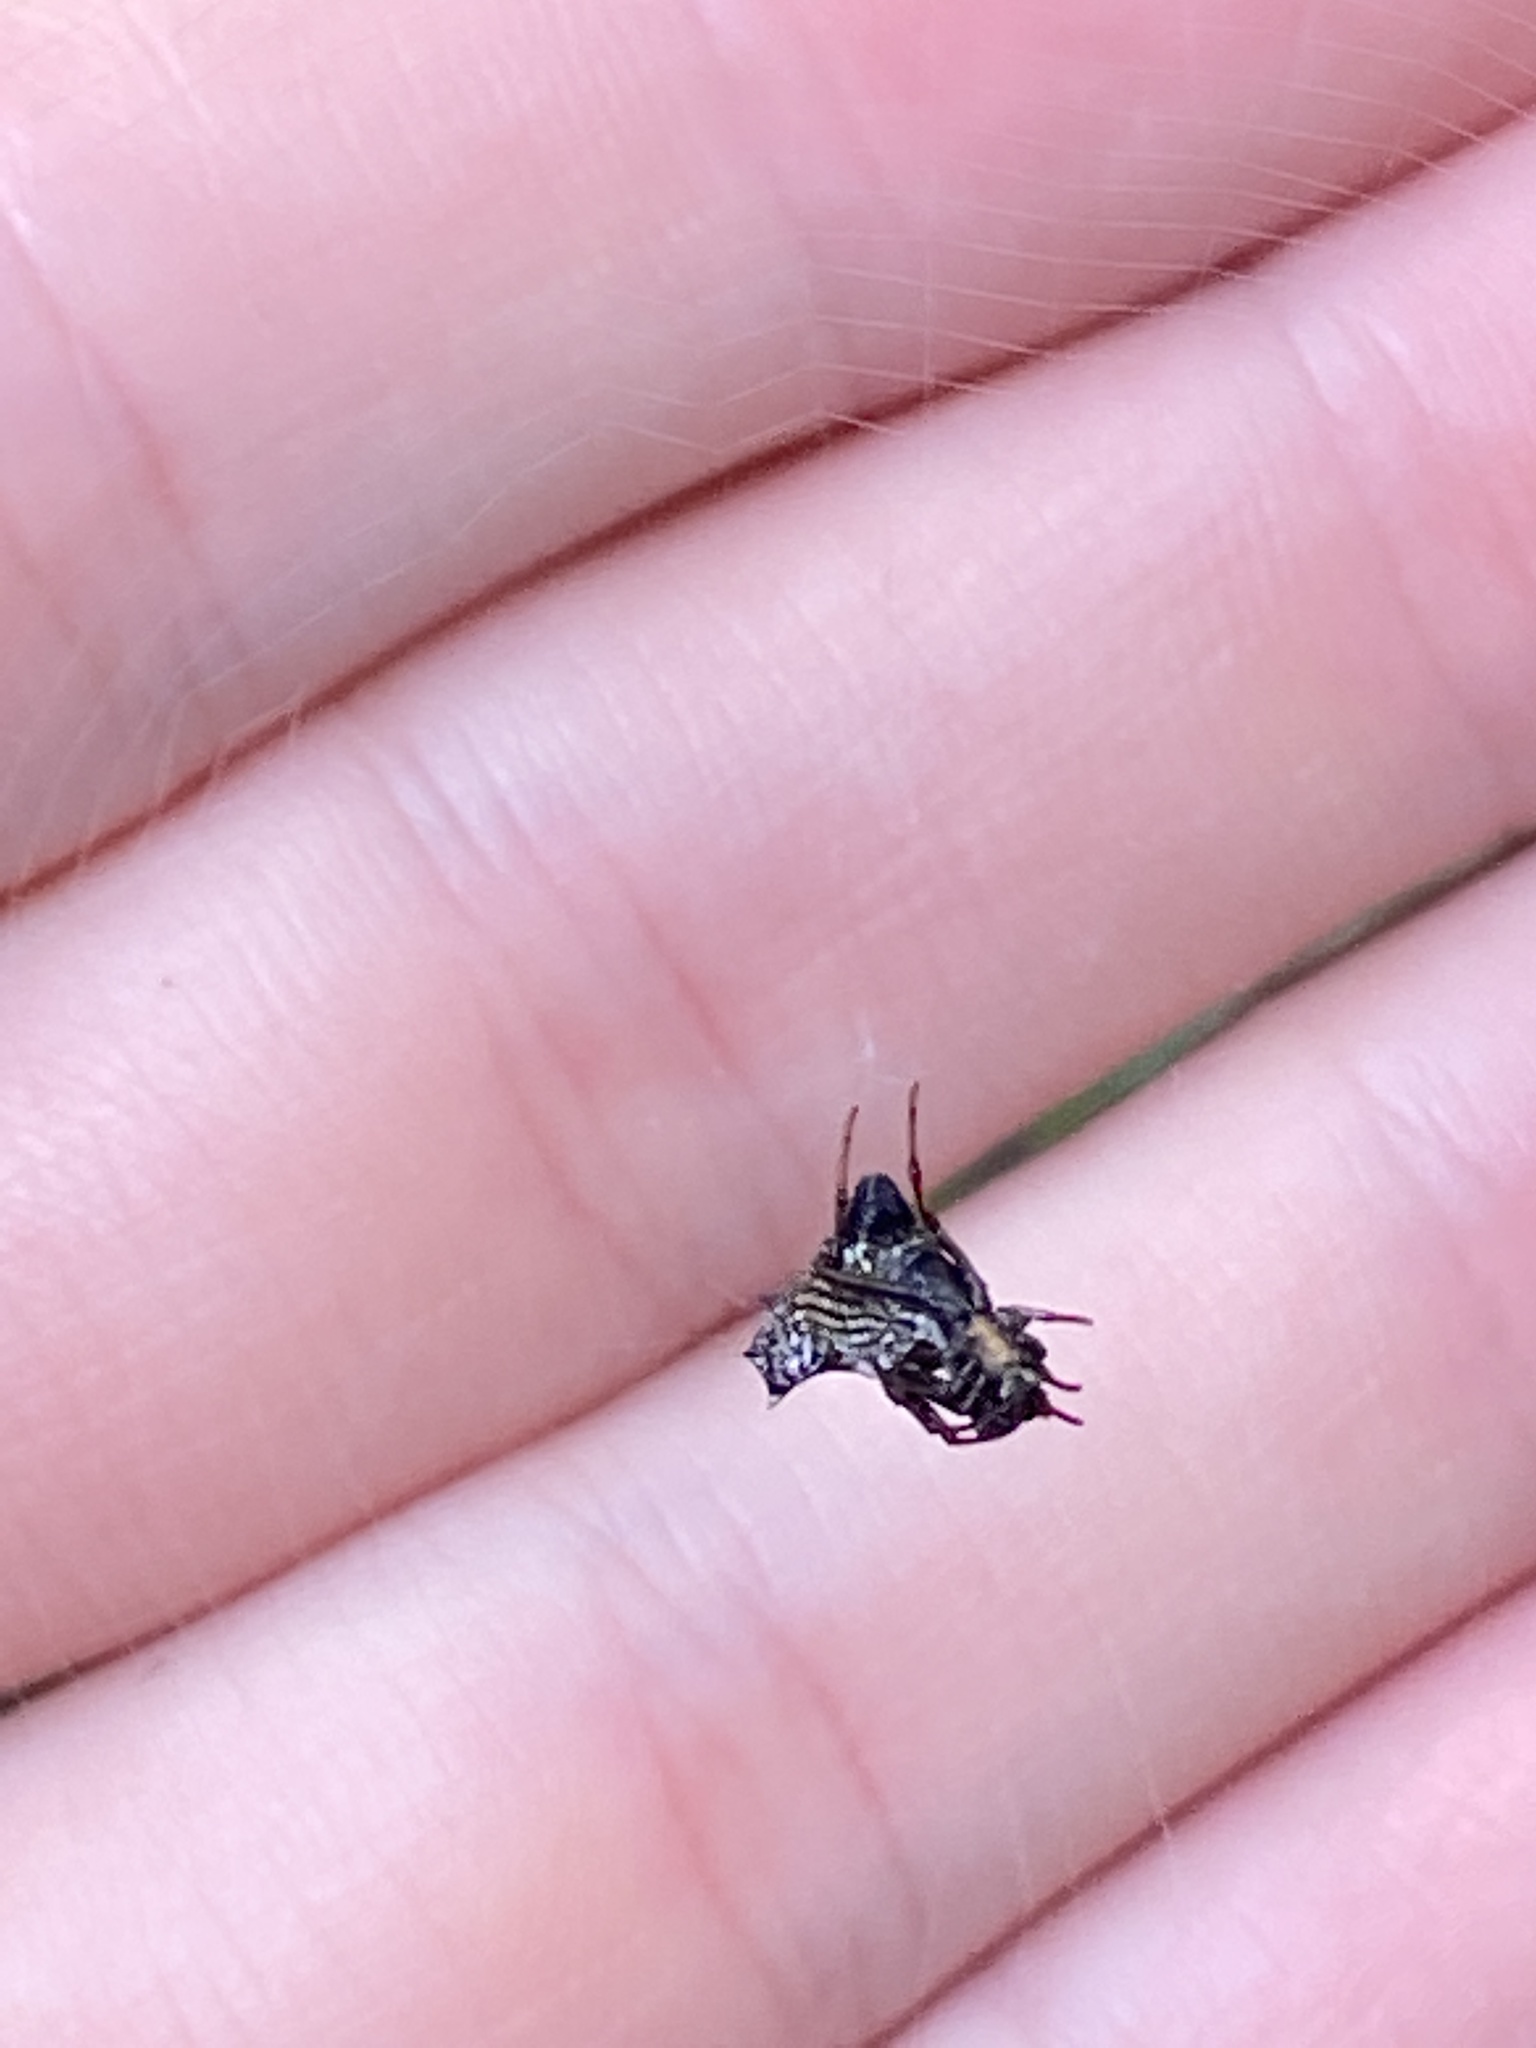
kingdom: Animalia
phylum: Arthropoda
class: Arachnida
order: Araneae
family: Araneidae
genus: Micrathena
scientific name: Micrathena gracilis
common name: Orb weavers
